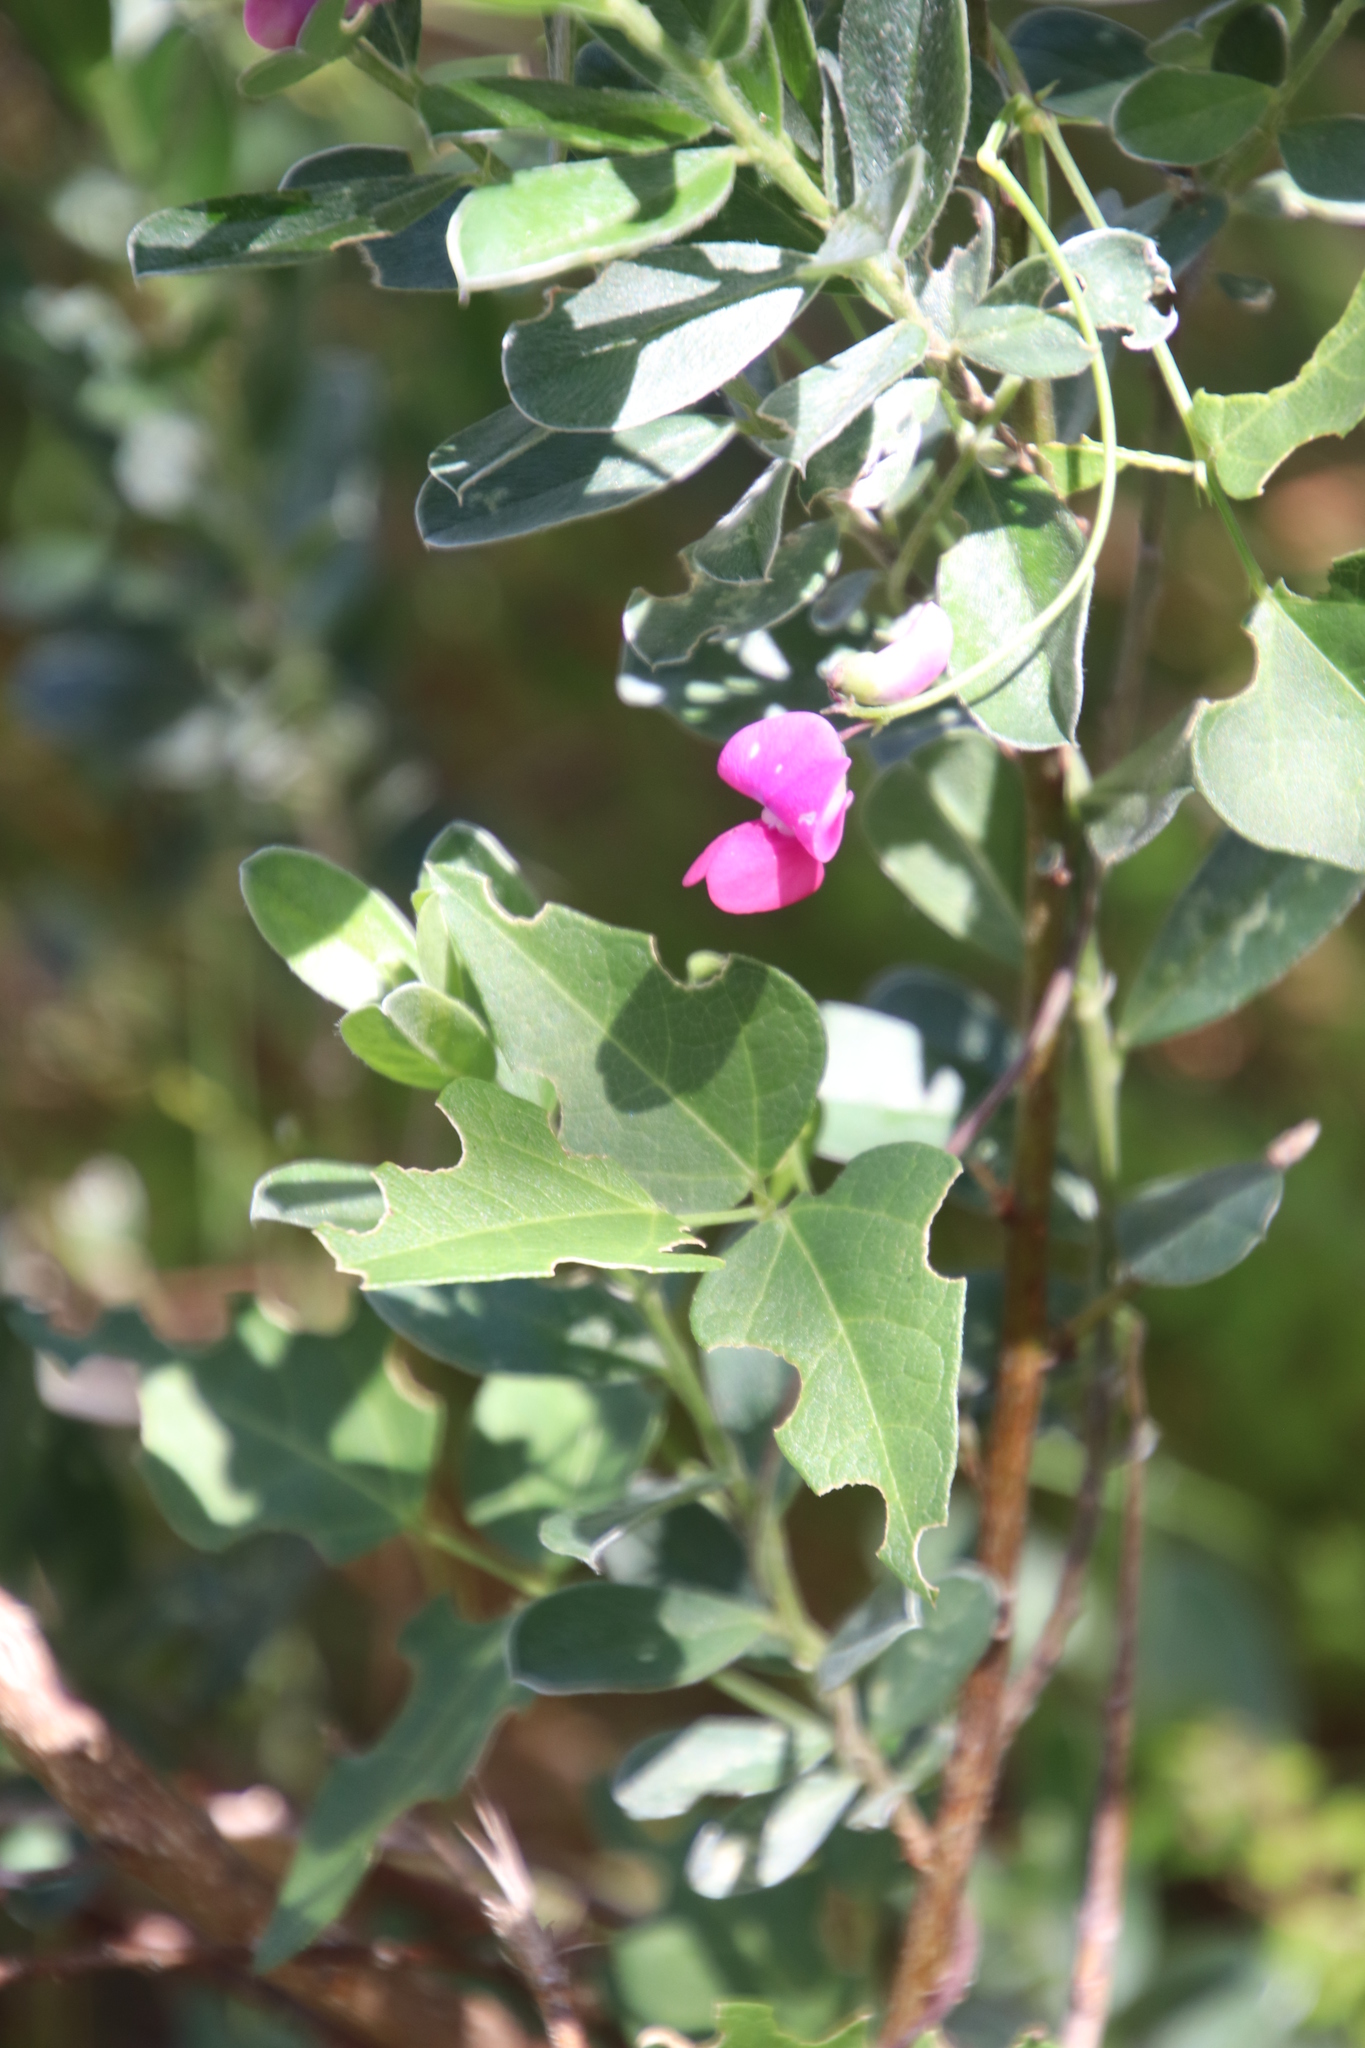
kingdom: Plantae
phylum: Tracheophyta
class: Magnoliopsida
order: Fabales
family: Fabaceae
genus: Dipogon
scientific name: Dipogon lignosus
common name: Okie bean
